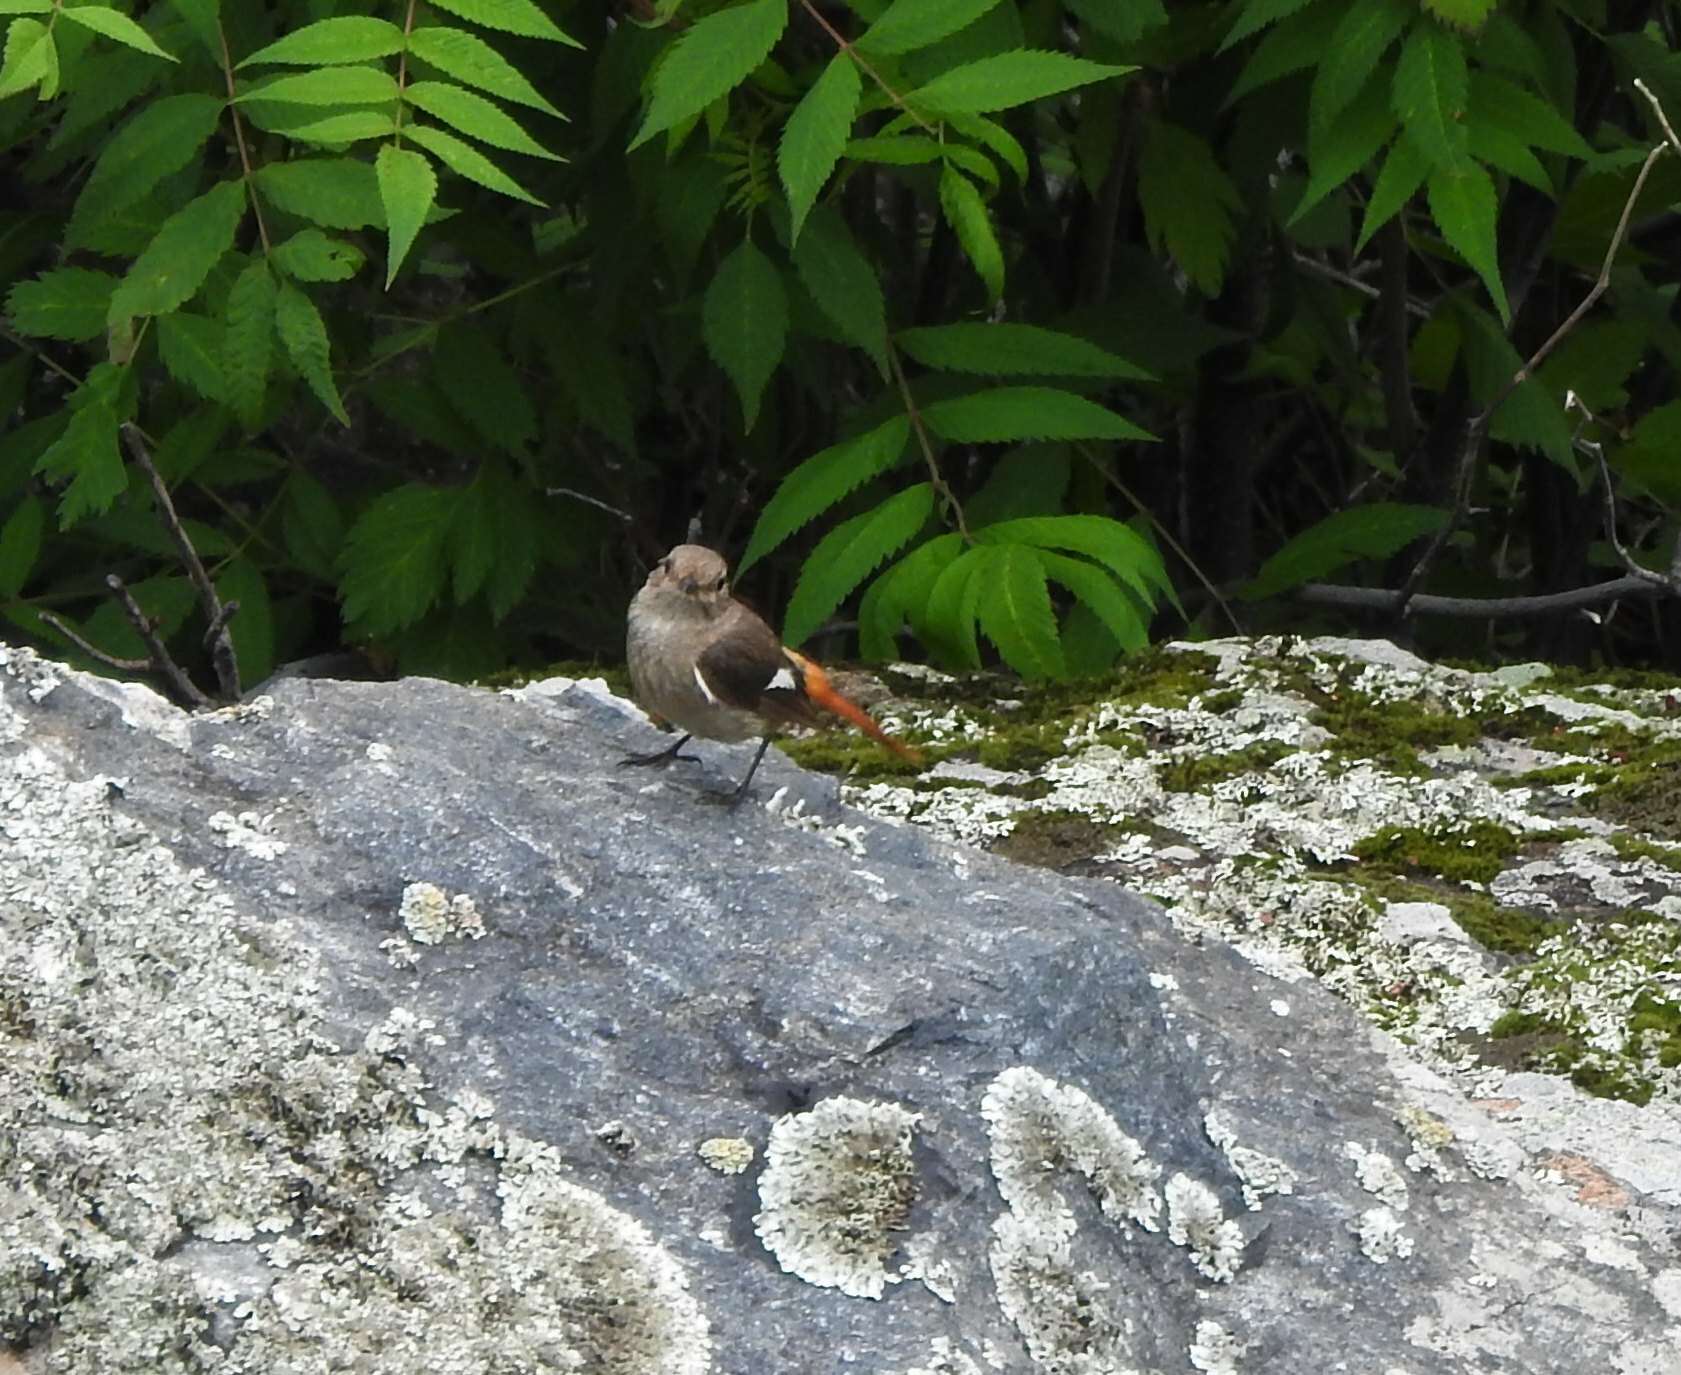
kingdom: Animalia
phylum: Chordata
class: Aves
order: Passeriformes
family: Muscicapidae
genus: Phoenicurus
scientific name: Phoenicurus auroreus
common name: Daurian redstart
